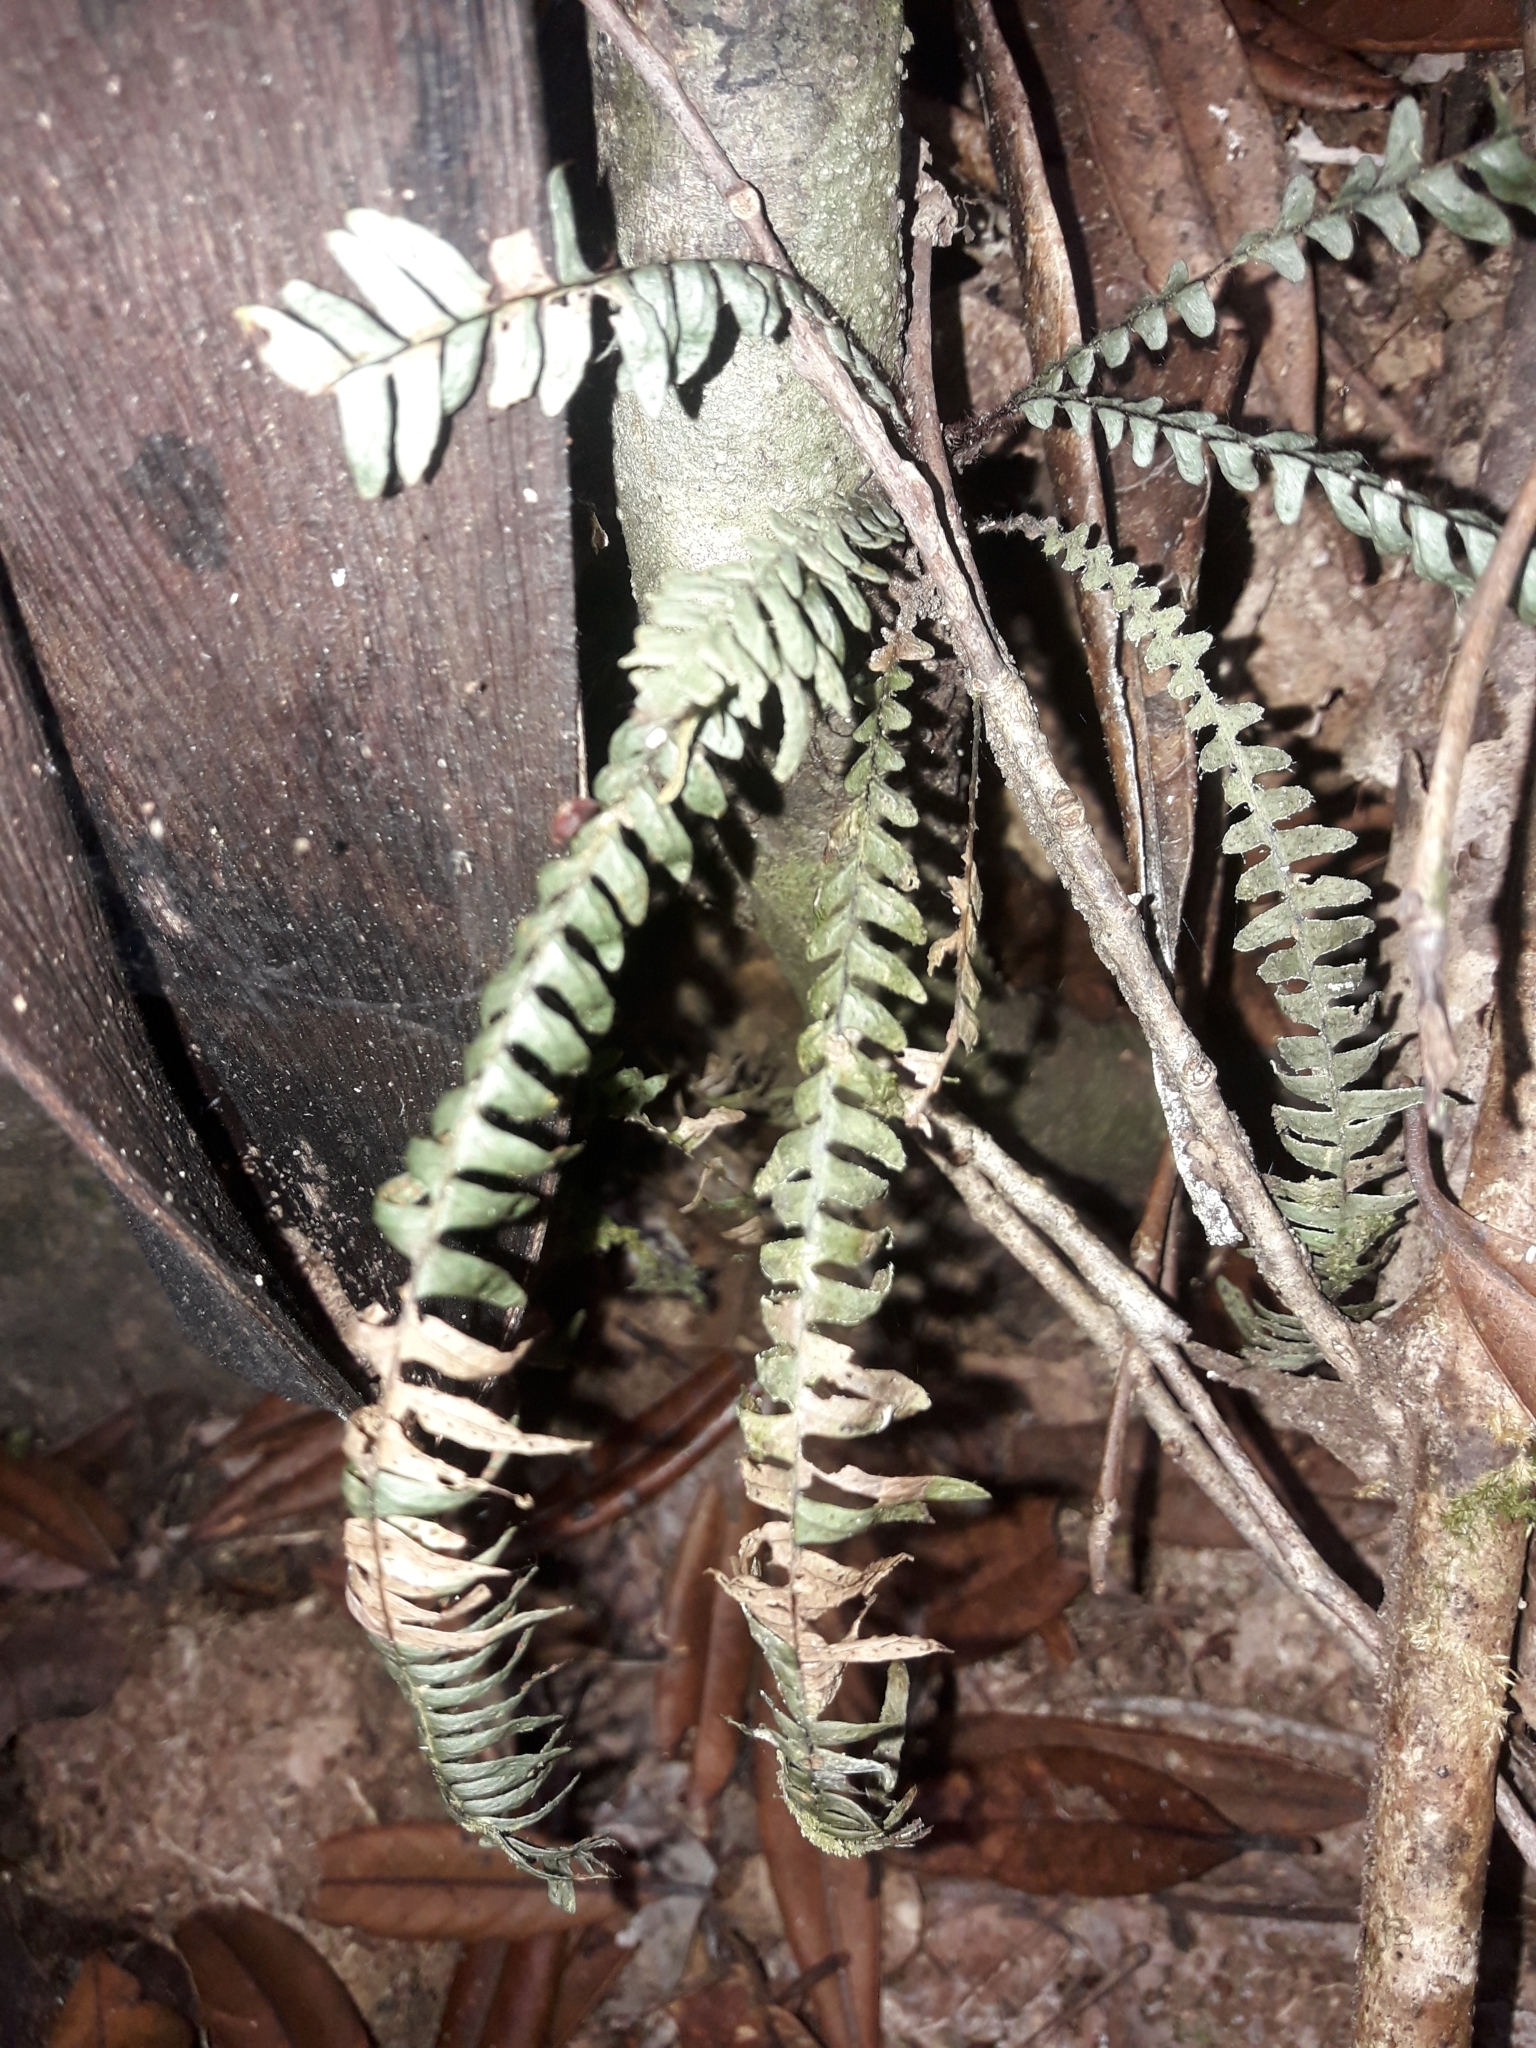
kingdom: Plantae
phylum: Tracheophyta
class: Polypodiopsida
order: Polypodiales
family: Polypodiaceae
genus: Ctenopterella
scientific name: Ctenopterella lasiostipes
